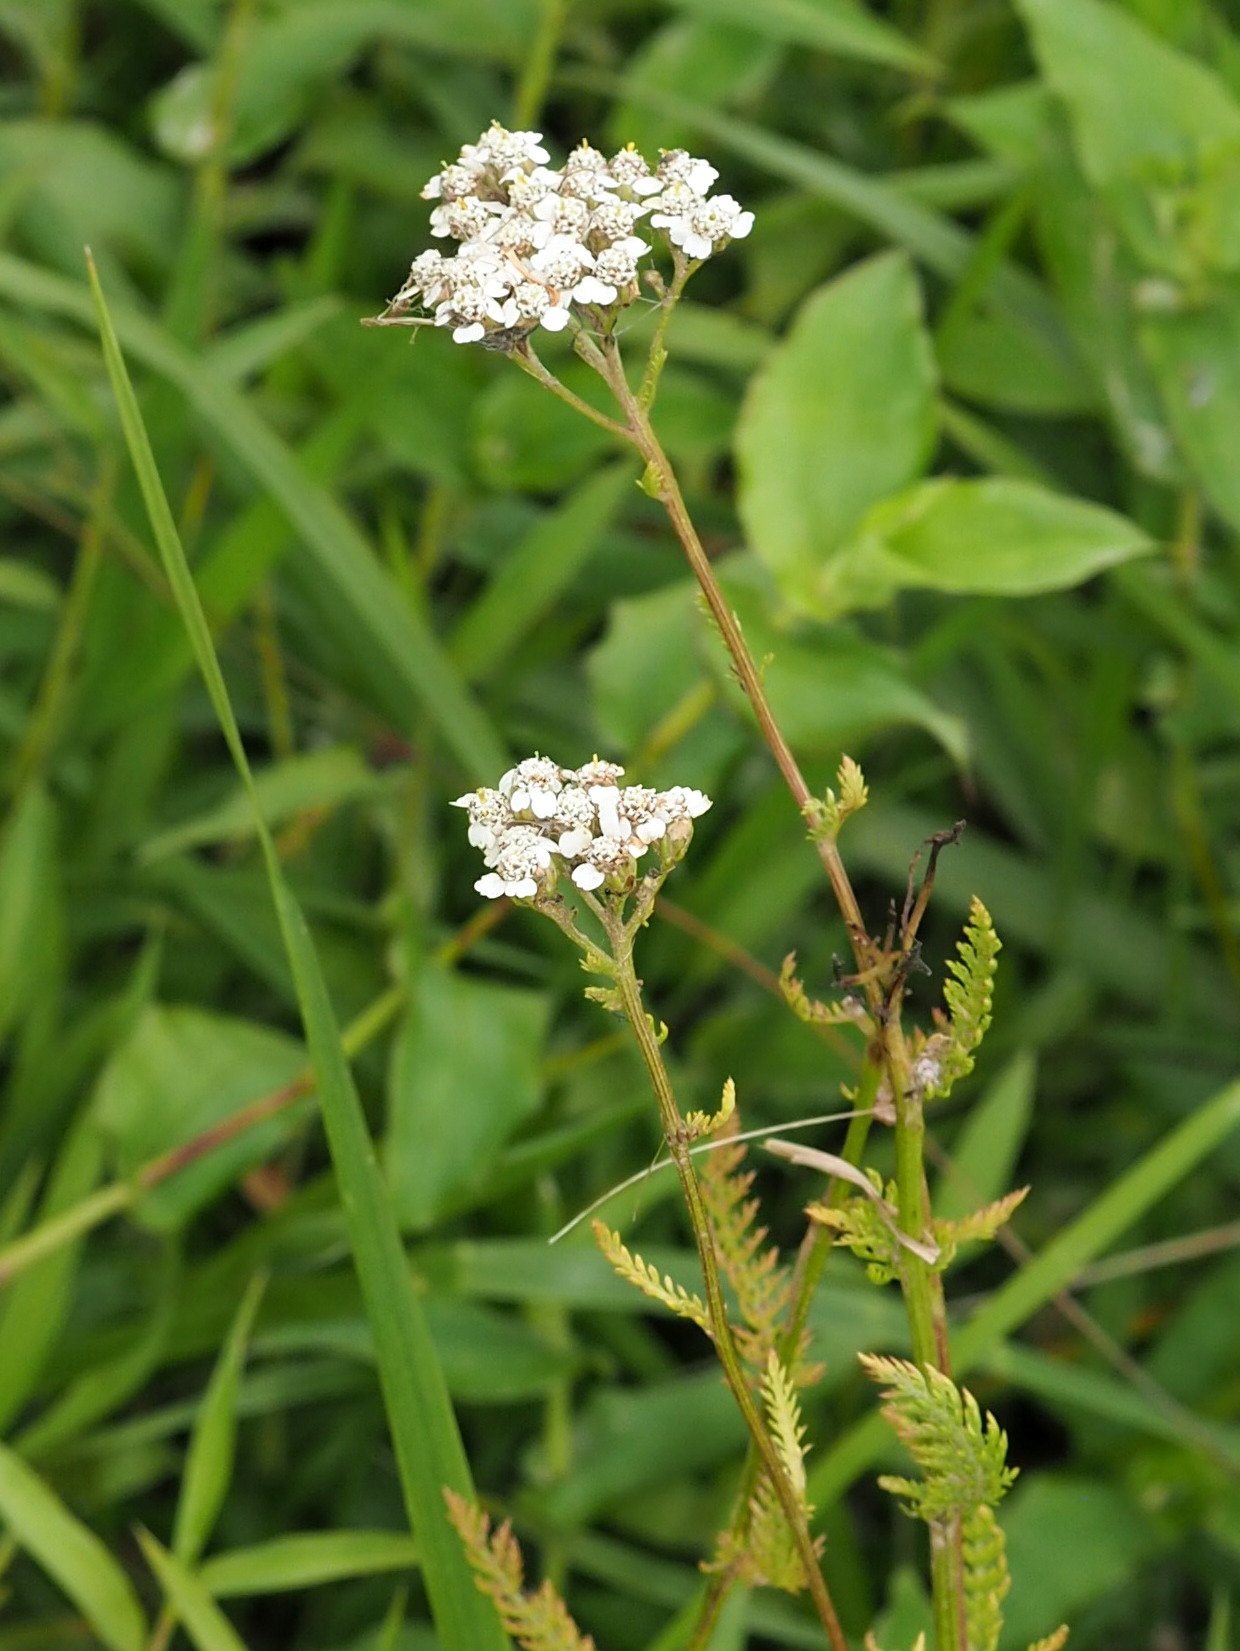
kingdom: Plantae
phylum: Tracheophyta
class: Magnoliopsida
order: Asterales
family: Asteraceae
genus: Achillea
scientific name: Achillea millefolium
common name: Yarrow
